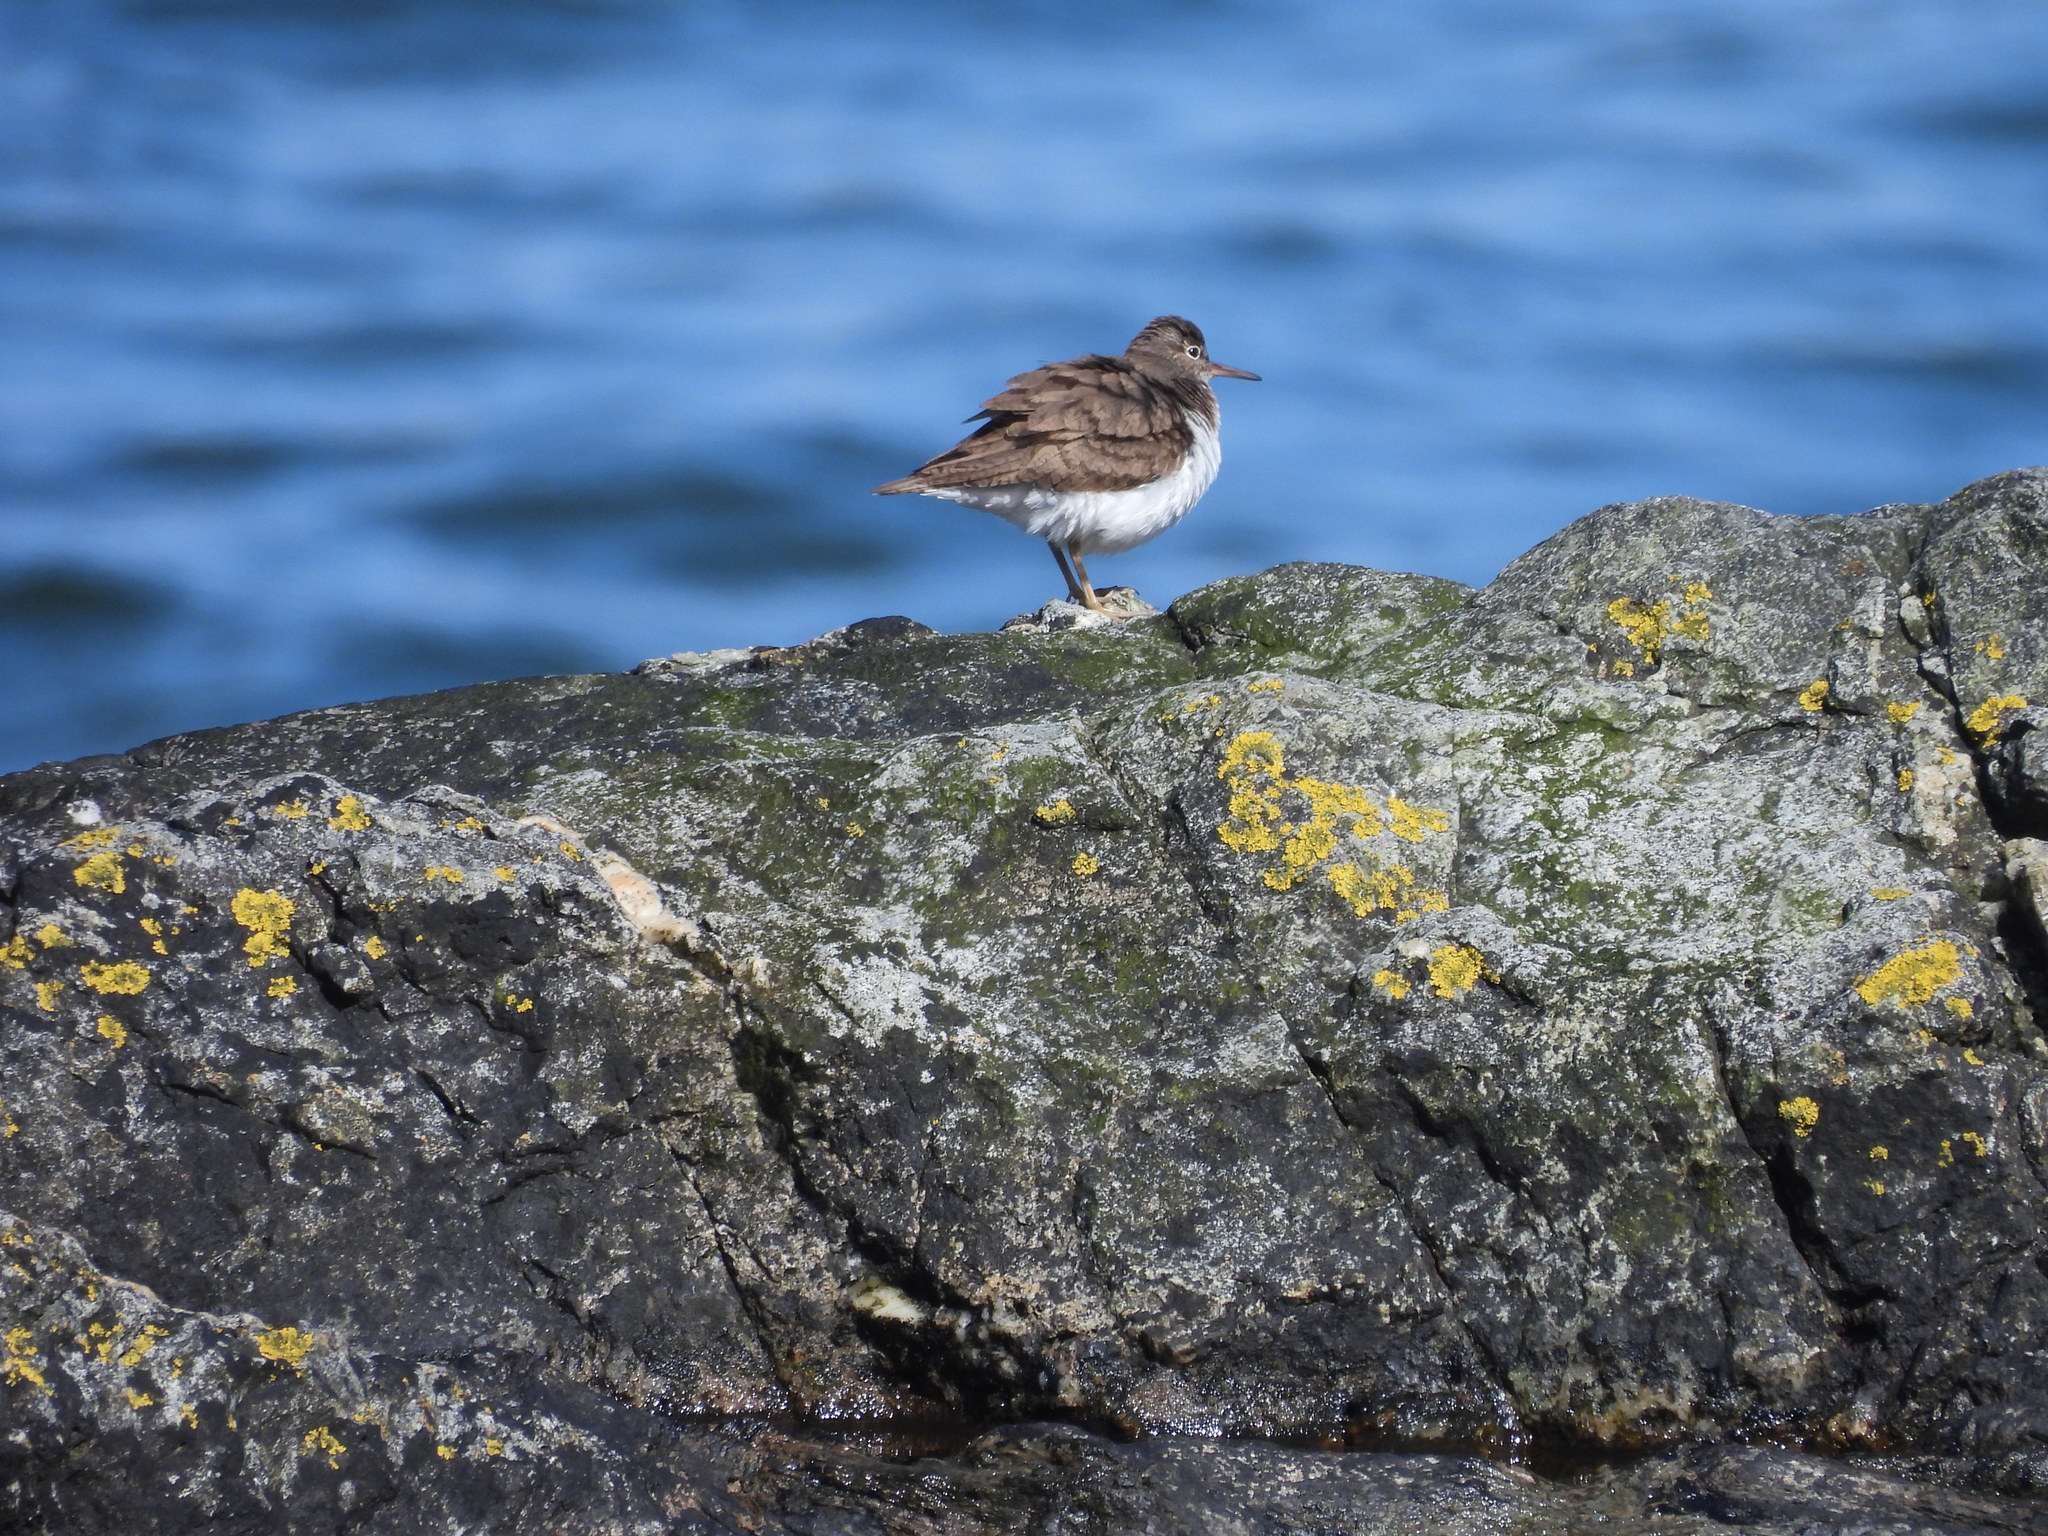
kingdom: Animalia
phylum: Chordata
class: Aves
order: Charadriiformes
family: Scolopacidae
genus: Actitis
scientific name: Actitis hypoleucos
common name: Common sandpiper
